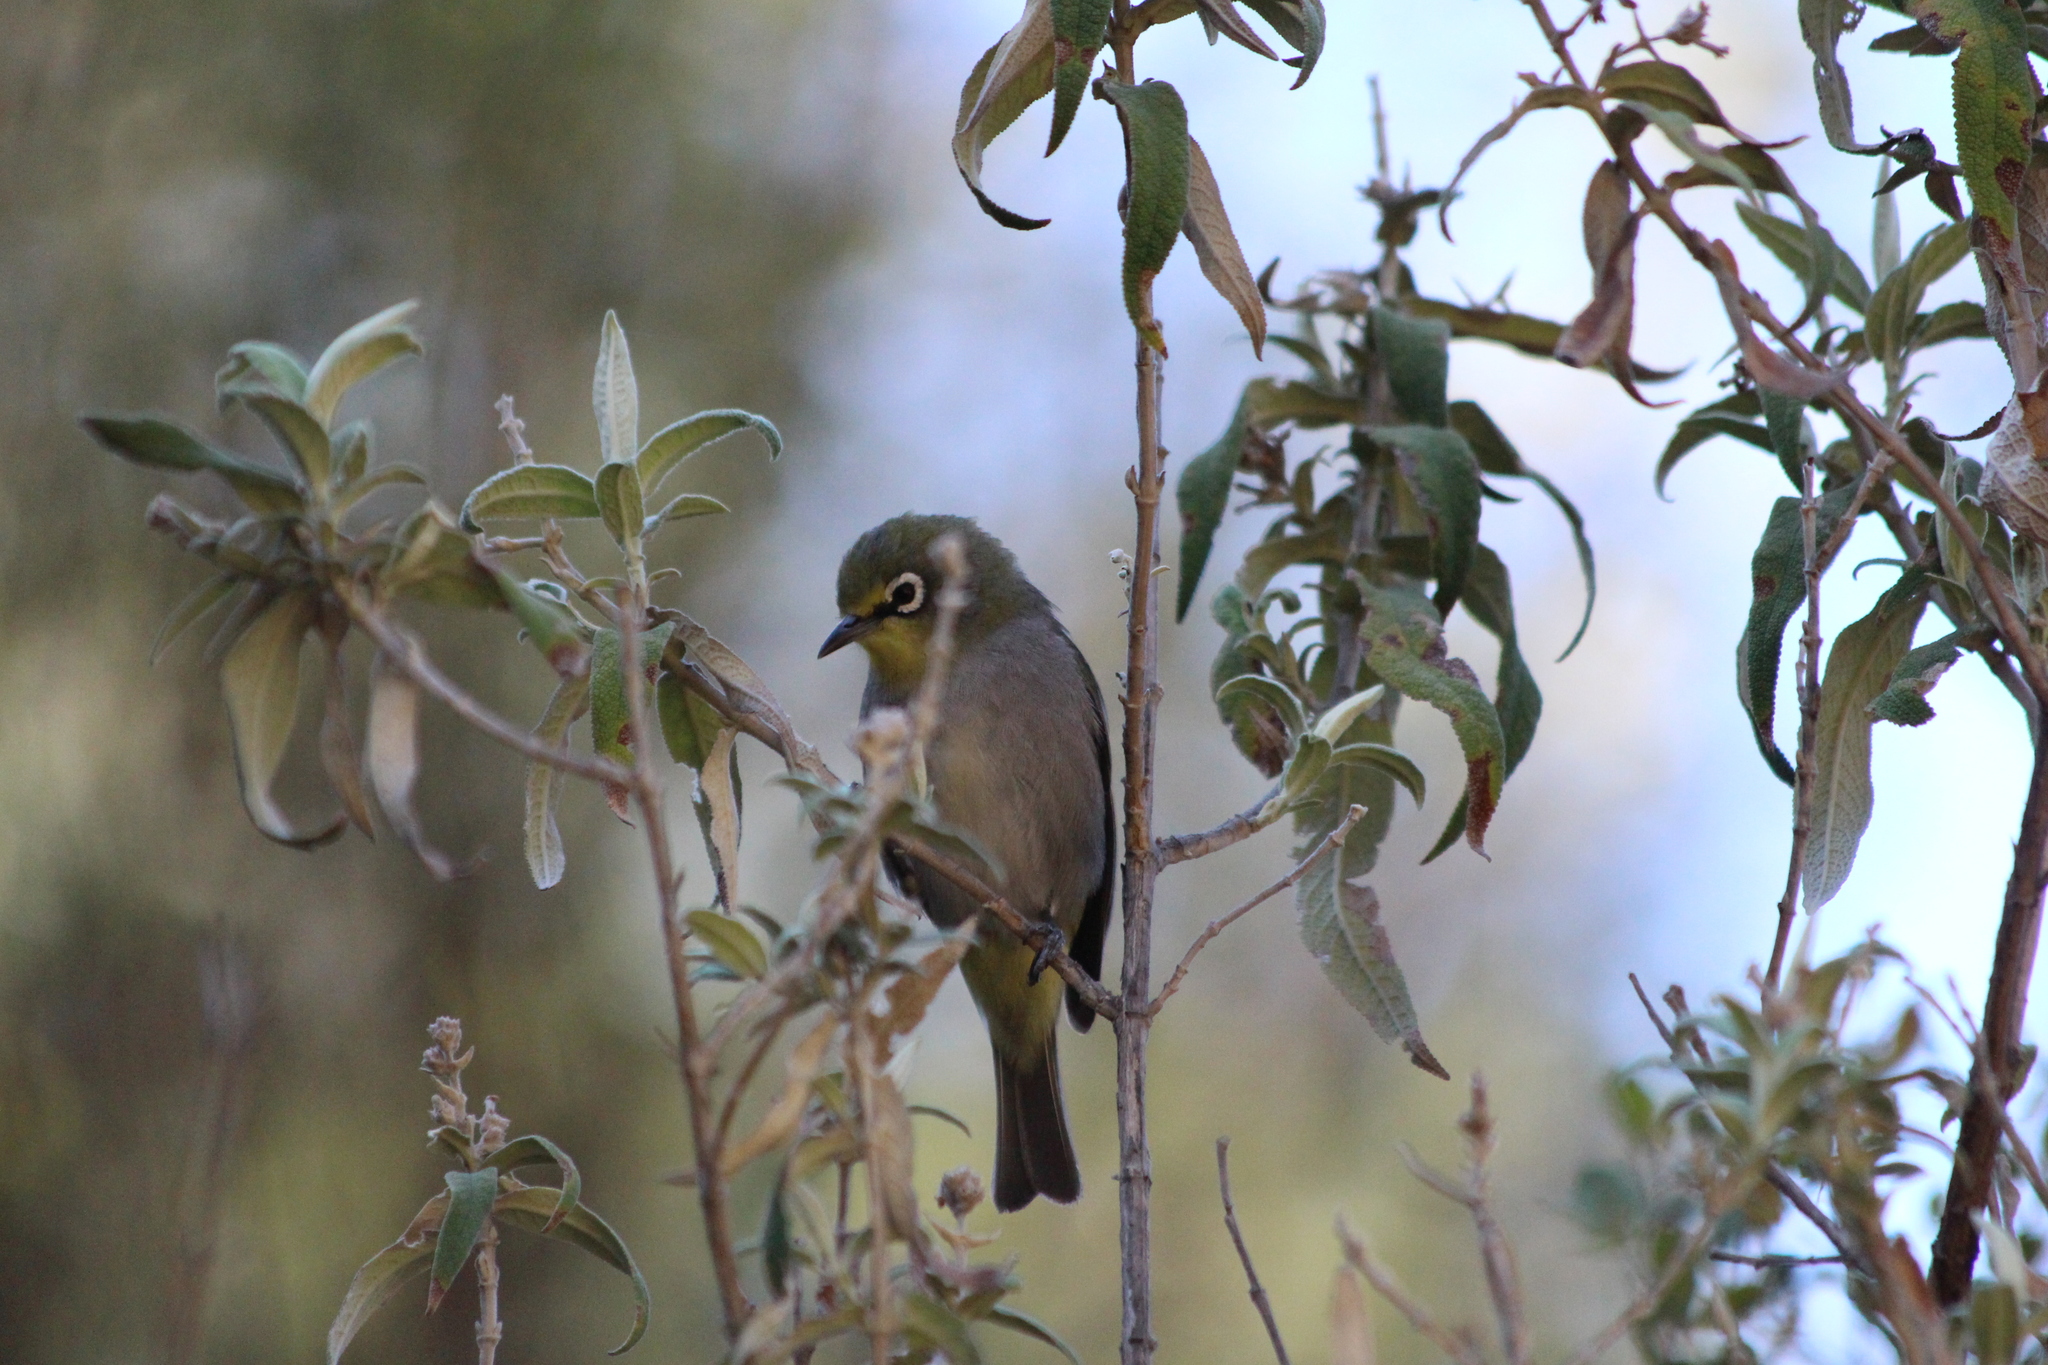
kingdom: Animalia
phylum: Chordata
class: Aves
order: Passeriformes
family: Zosteropidae
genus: Zosterops
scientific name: Zosterops virens
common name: Cape white-eye
